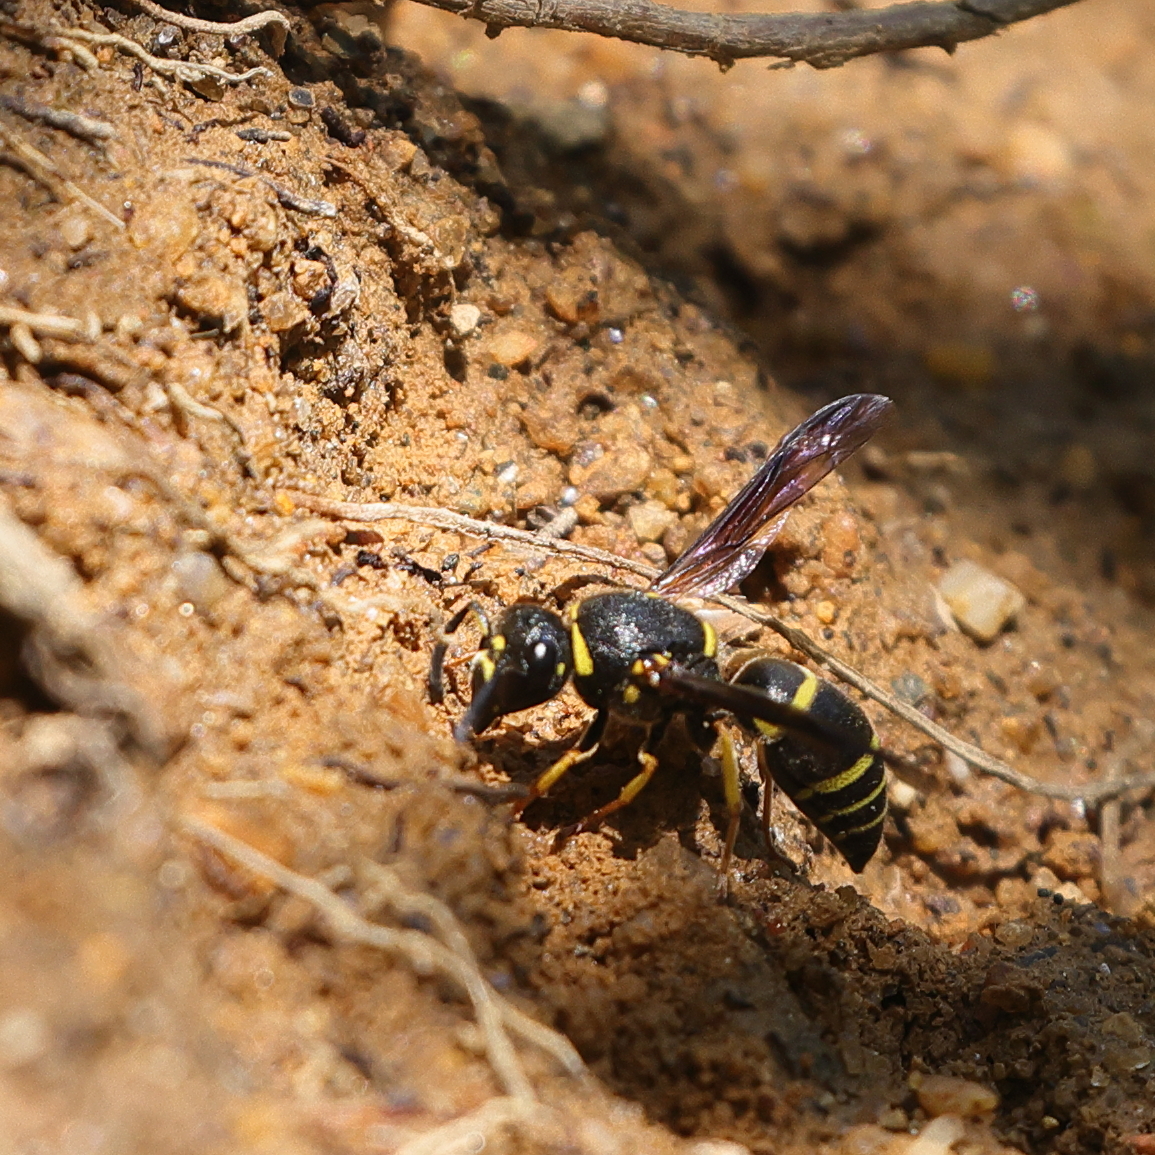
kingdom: Animalia
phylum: Arthropoda
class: Insecta
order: Hymenoptera
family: Eumenidae
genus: Euodynerus
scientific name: Euodynerus foraminatus
